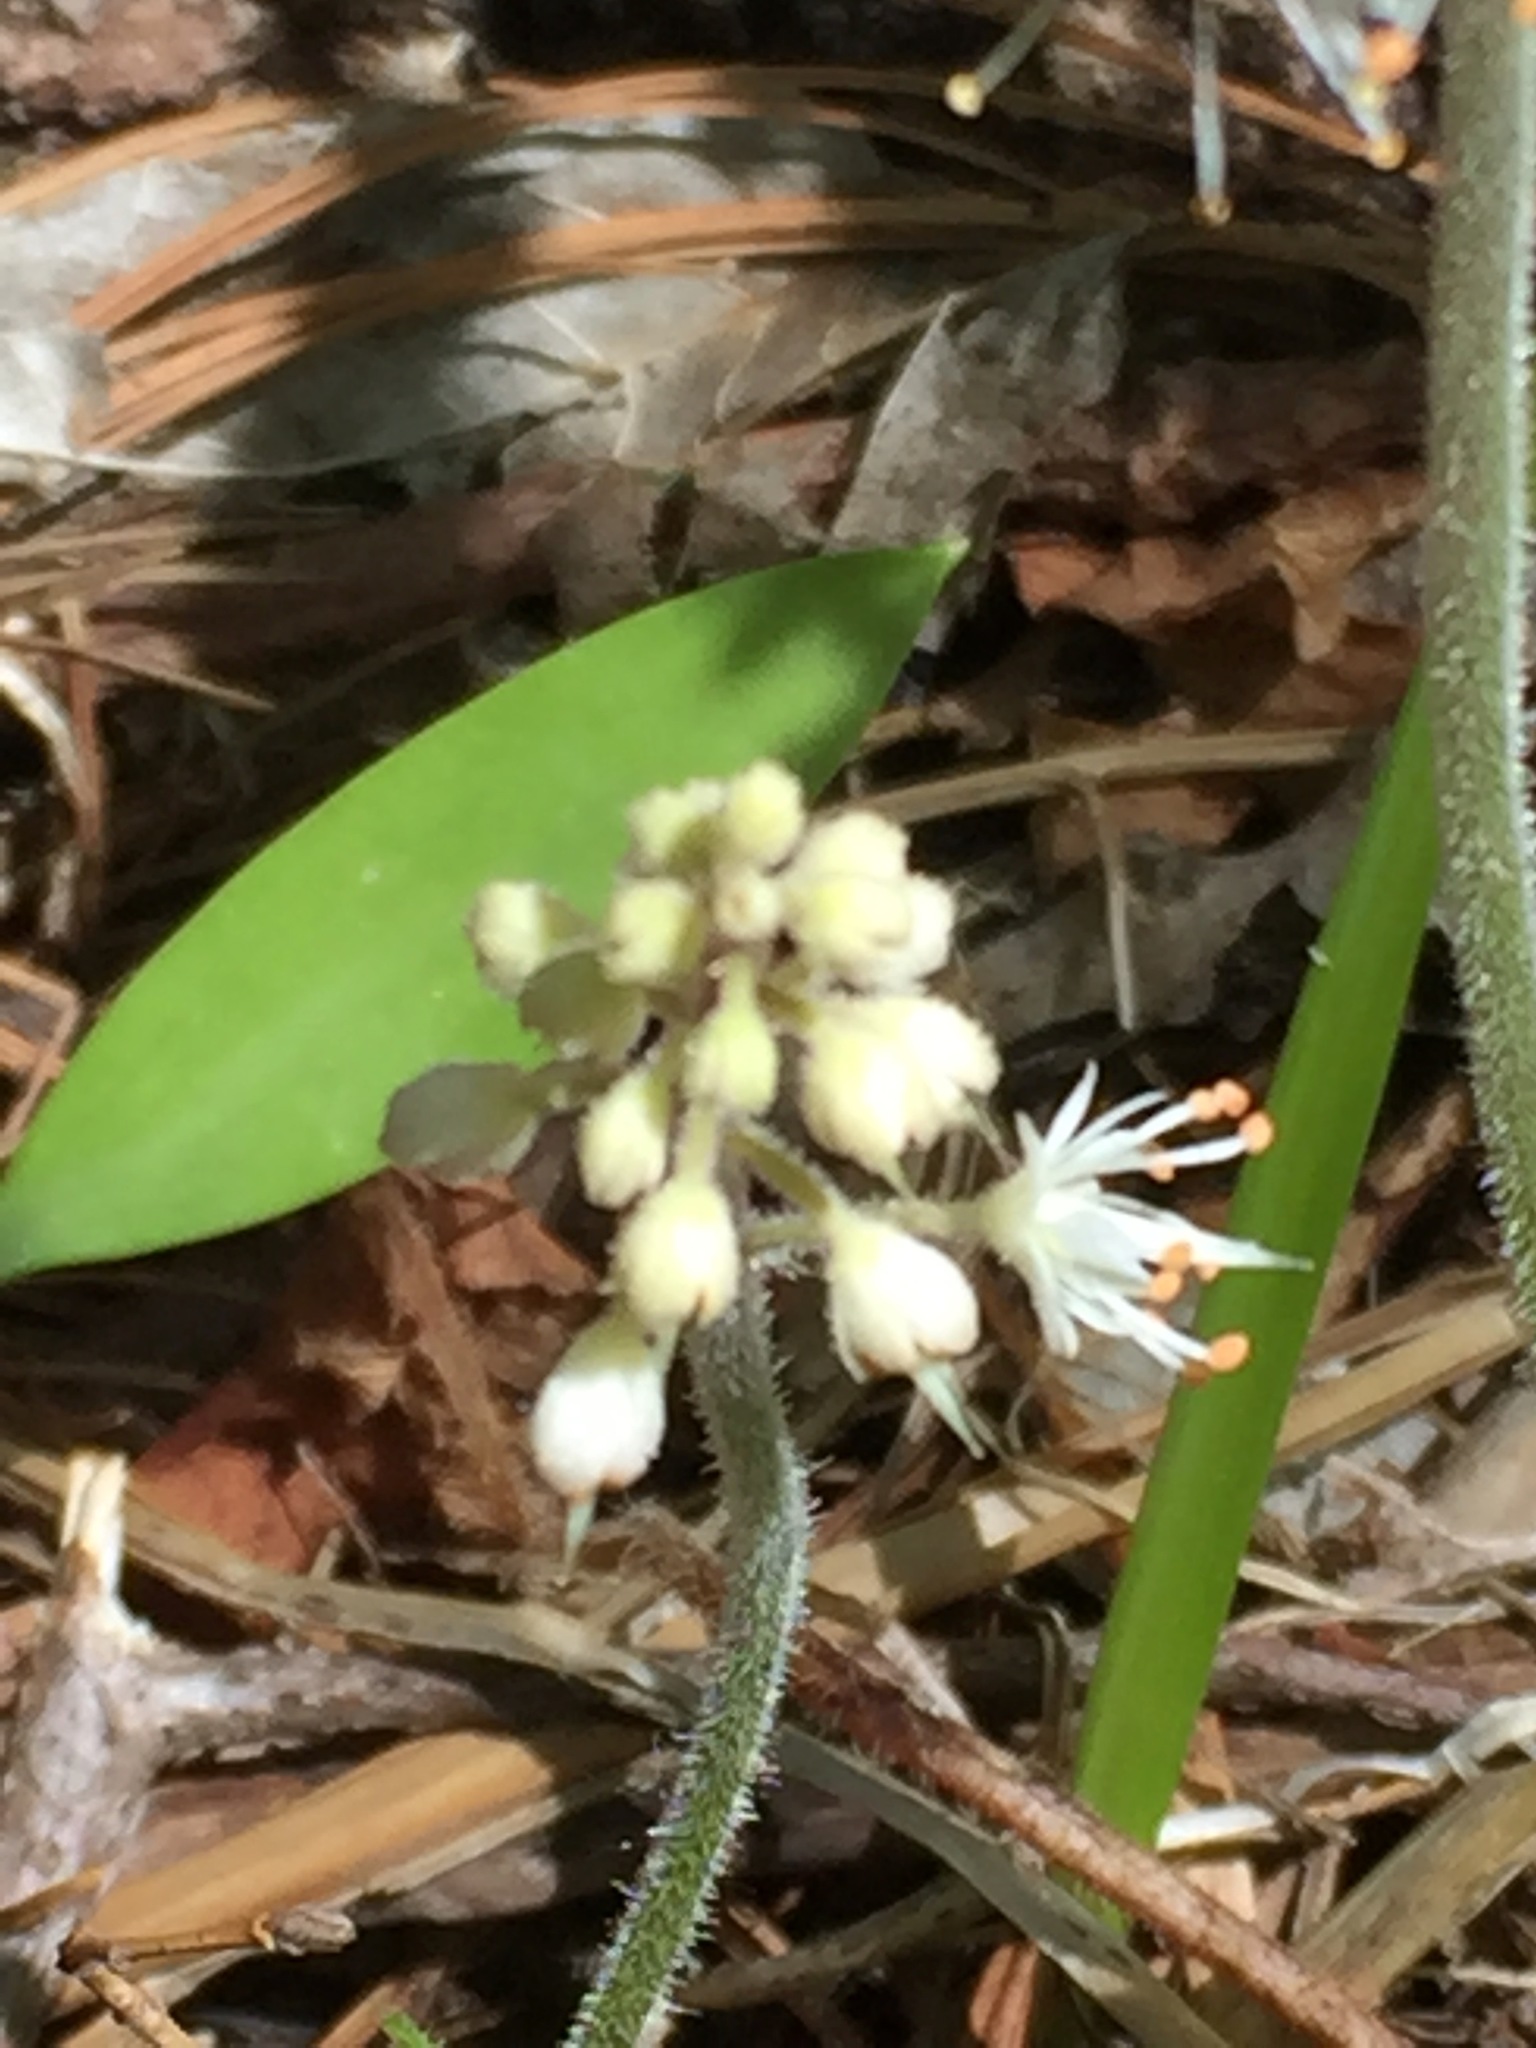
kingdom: Plantae
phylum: Tracheophyta
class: Magnoliopsida
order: Saxifragales
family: Saxifragaceae
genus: Tiarella
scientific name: Tiarella stolonifera
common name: Stoloniferous foamflower
